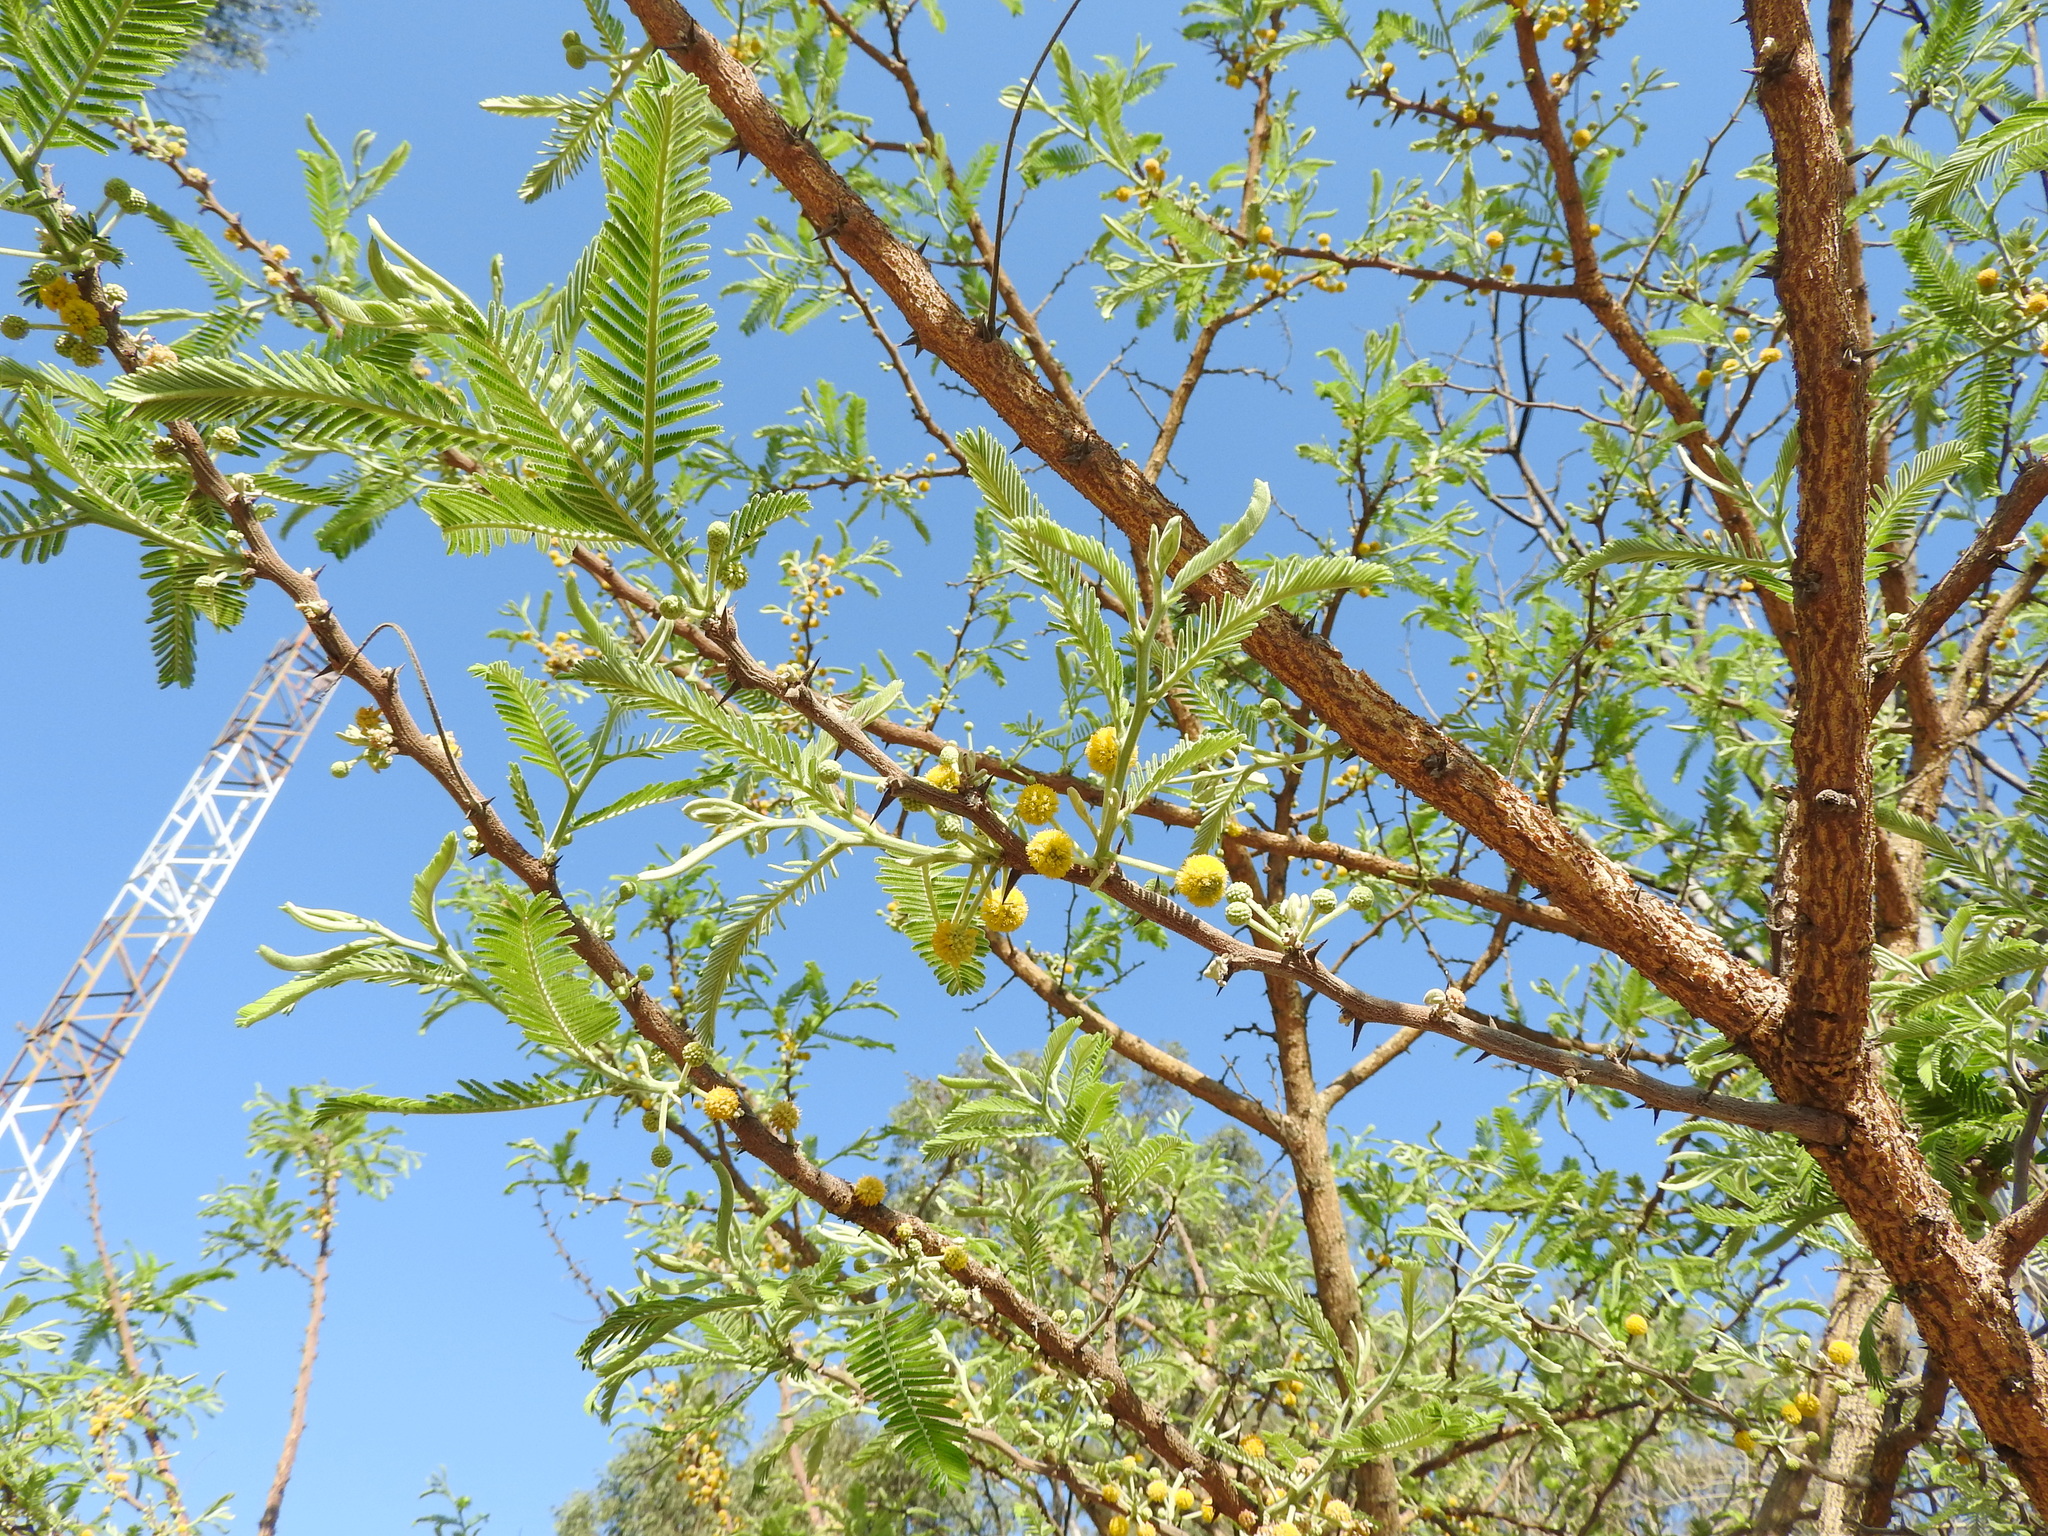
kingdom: Plantae
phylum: Tracheophyta
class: Magnoliopsida
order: Fabales
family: Fabaceae
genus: Vachellia
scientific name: Vachellia pennatula
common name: Fern-leaf acacia
